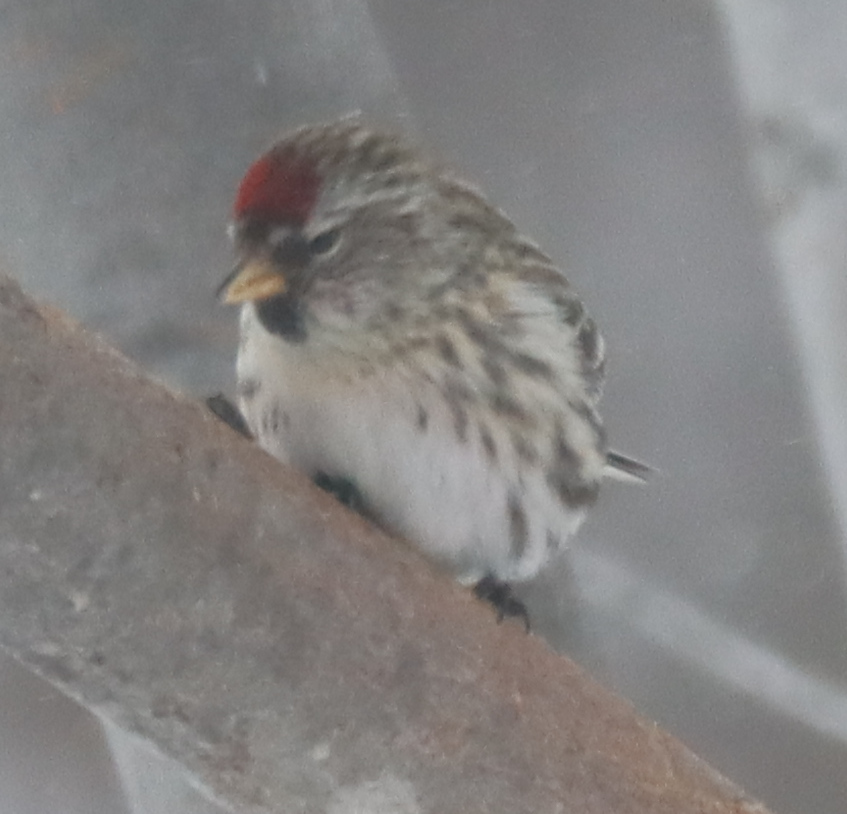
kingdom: Animalia
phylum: Chordata
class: Aves
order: Passeriformes
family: Fringillidae
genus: Acanthis
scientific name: Acanthis flammea
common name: Common redpoll
